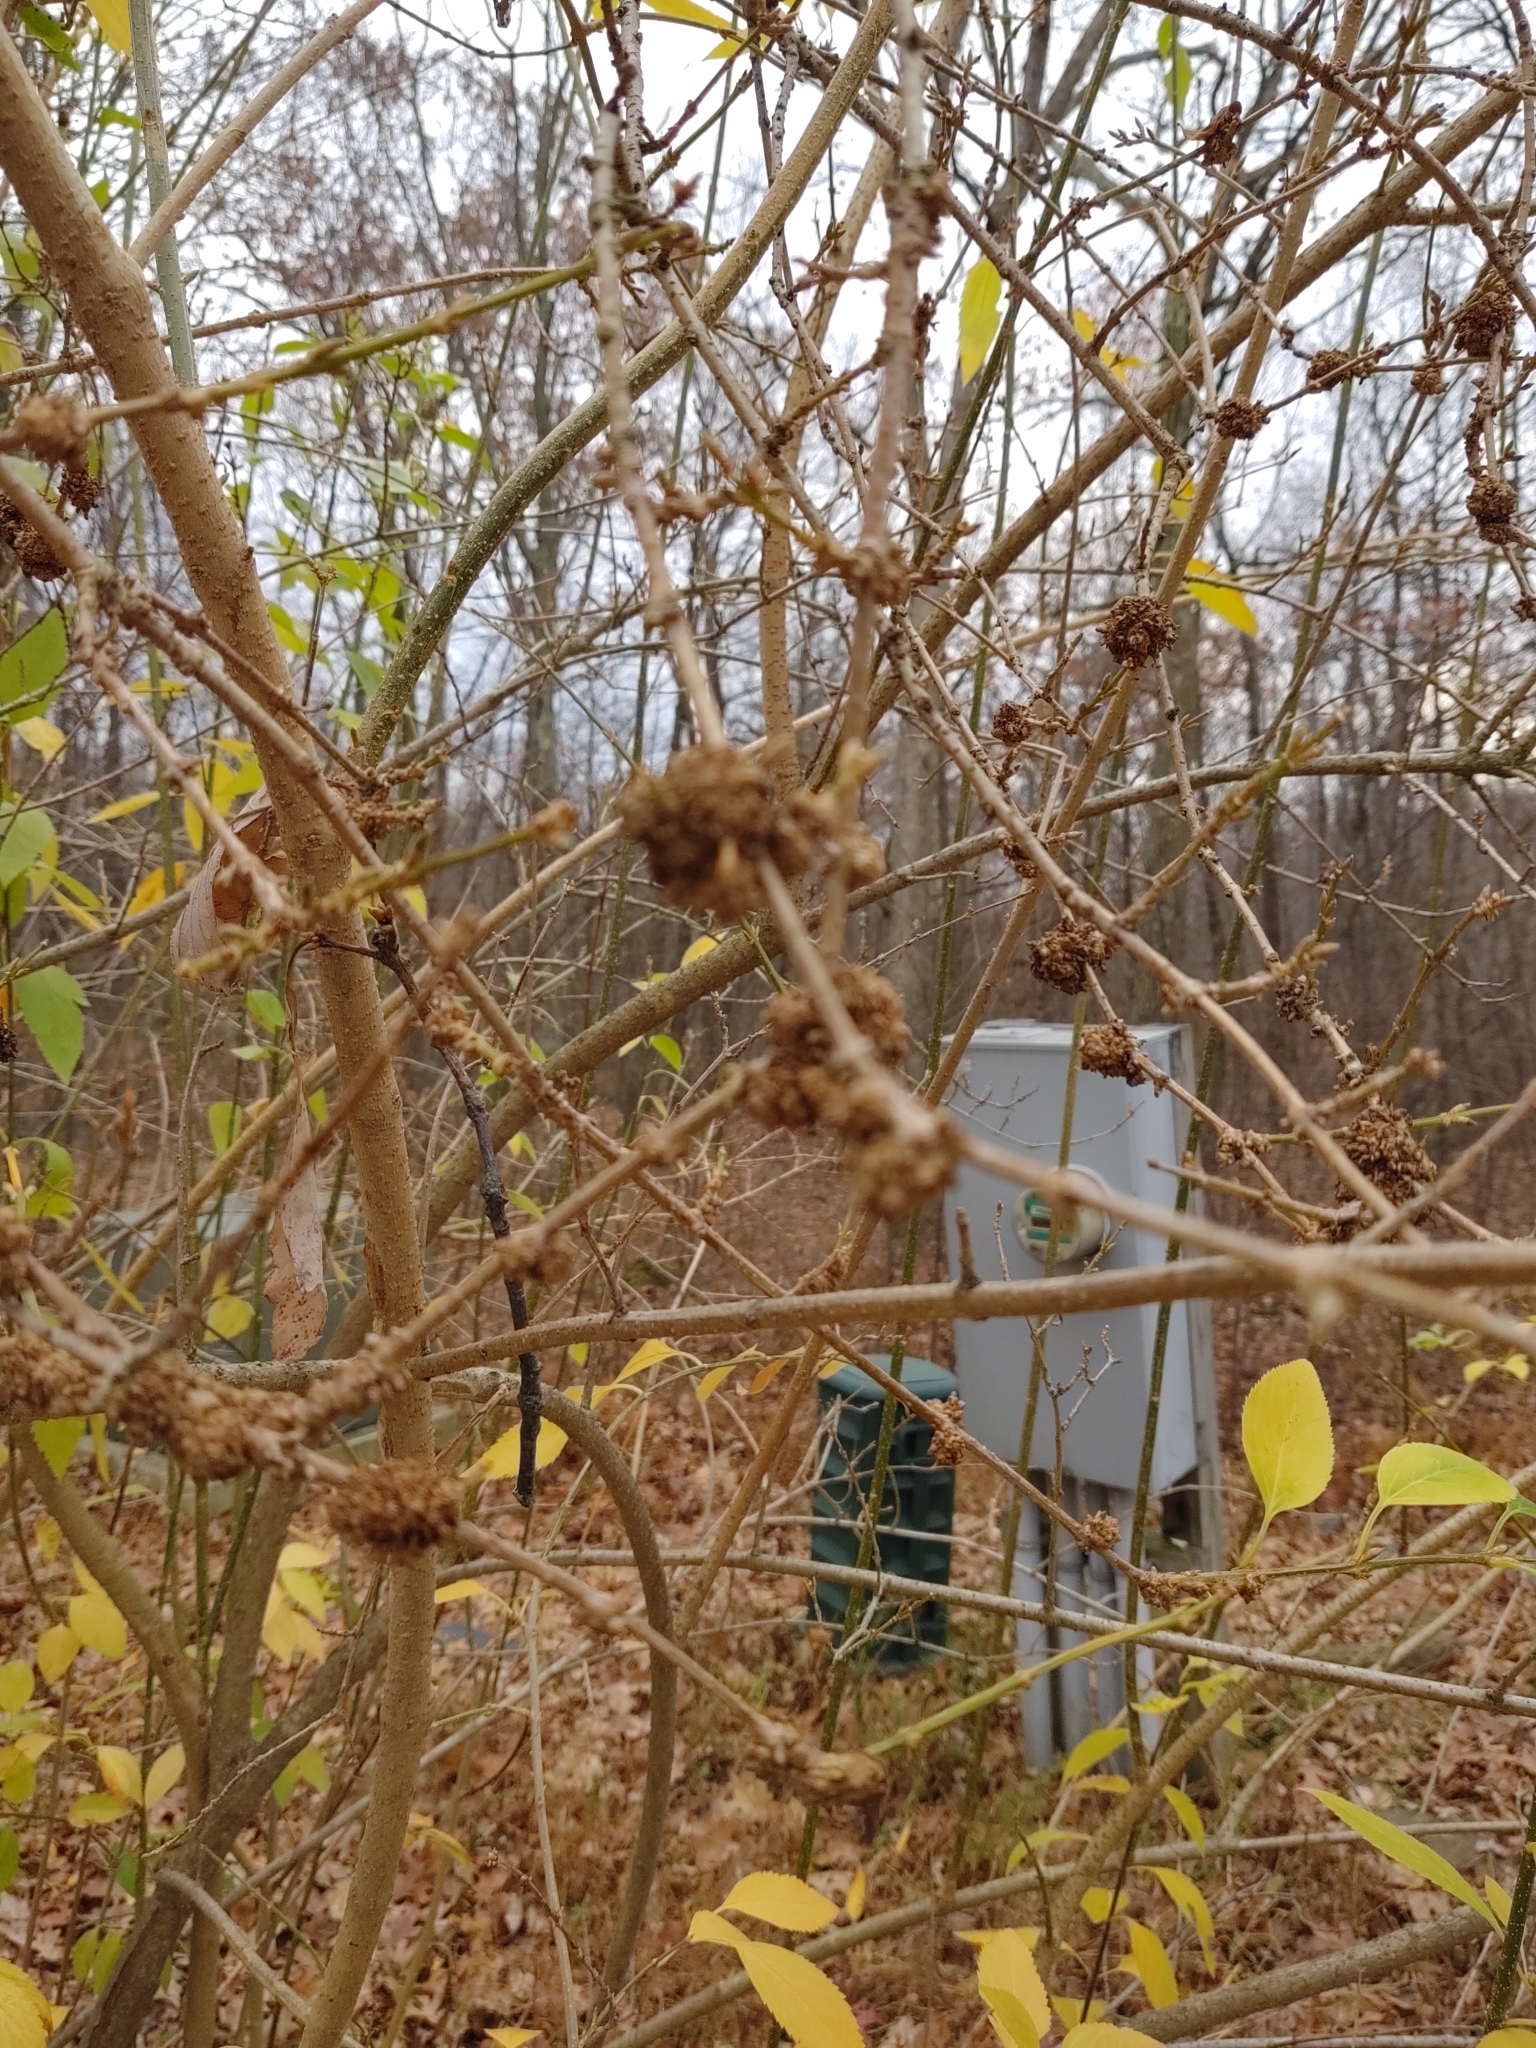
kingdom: Bacteria
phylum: Proteobacteria
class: Gammaproteobacteria
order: Pseudomonadales
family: Pseudomonadaceae
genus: Pseudomonas
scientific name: Pseudomonas
